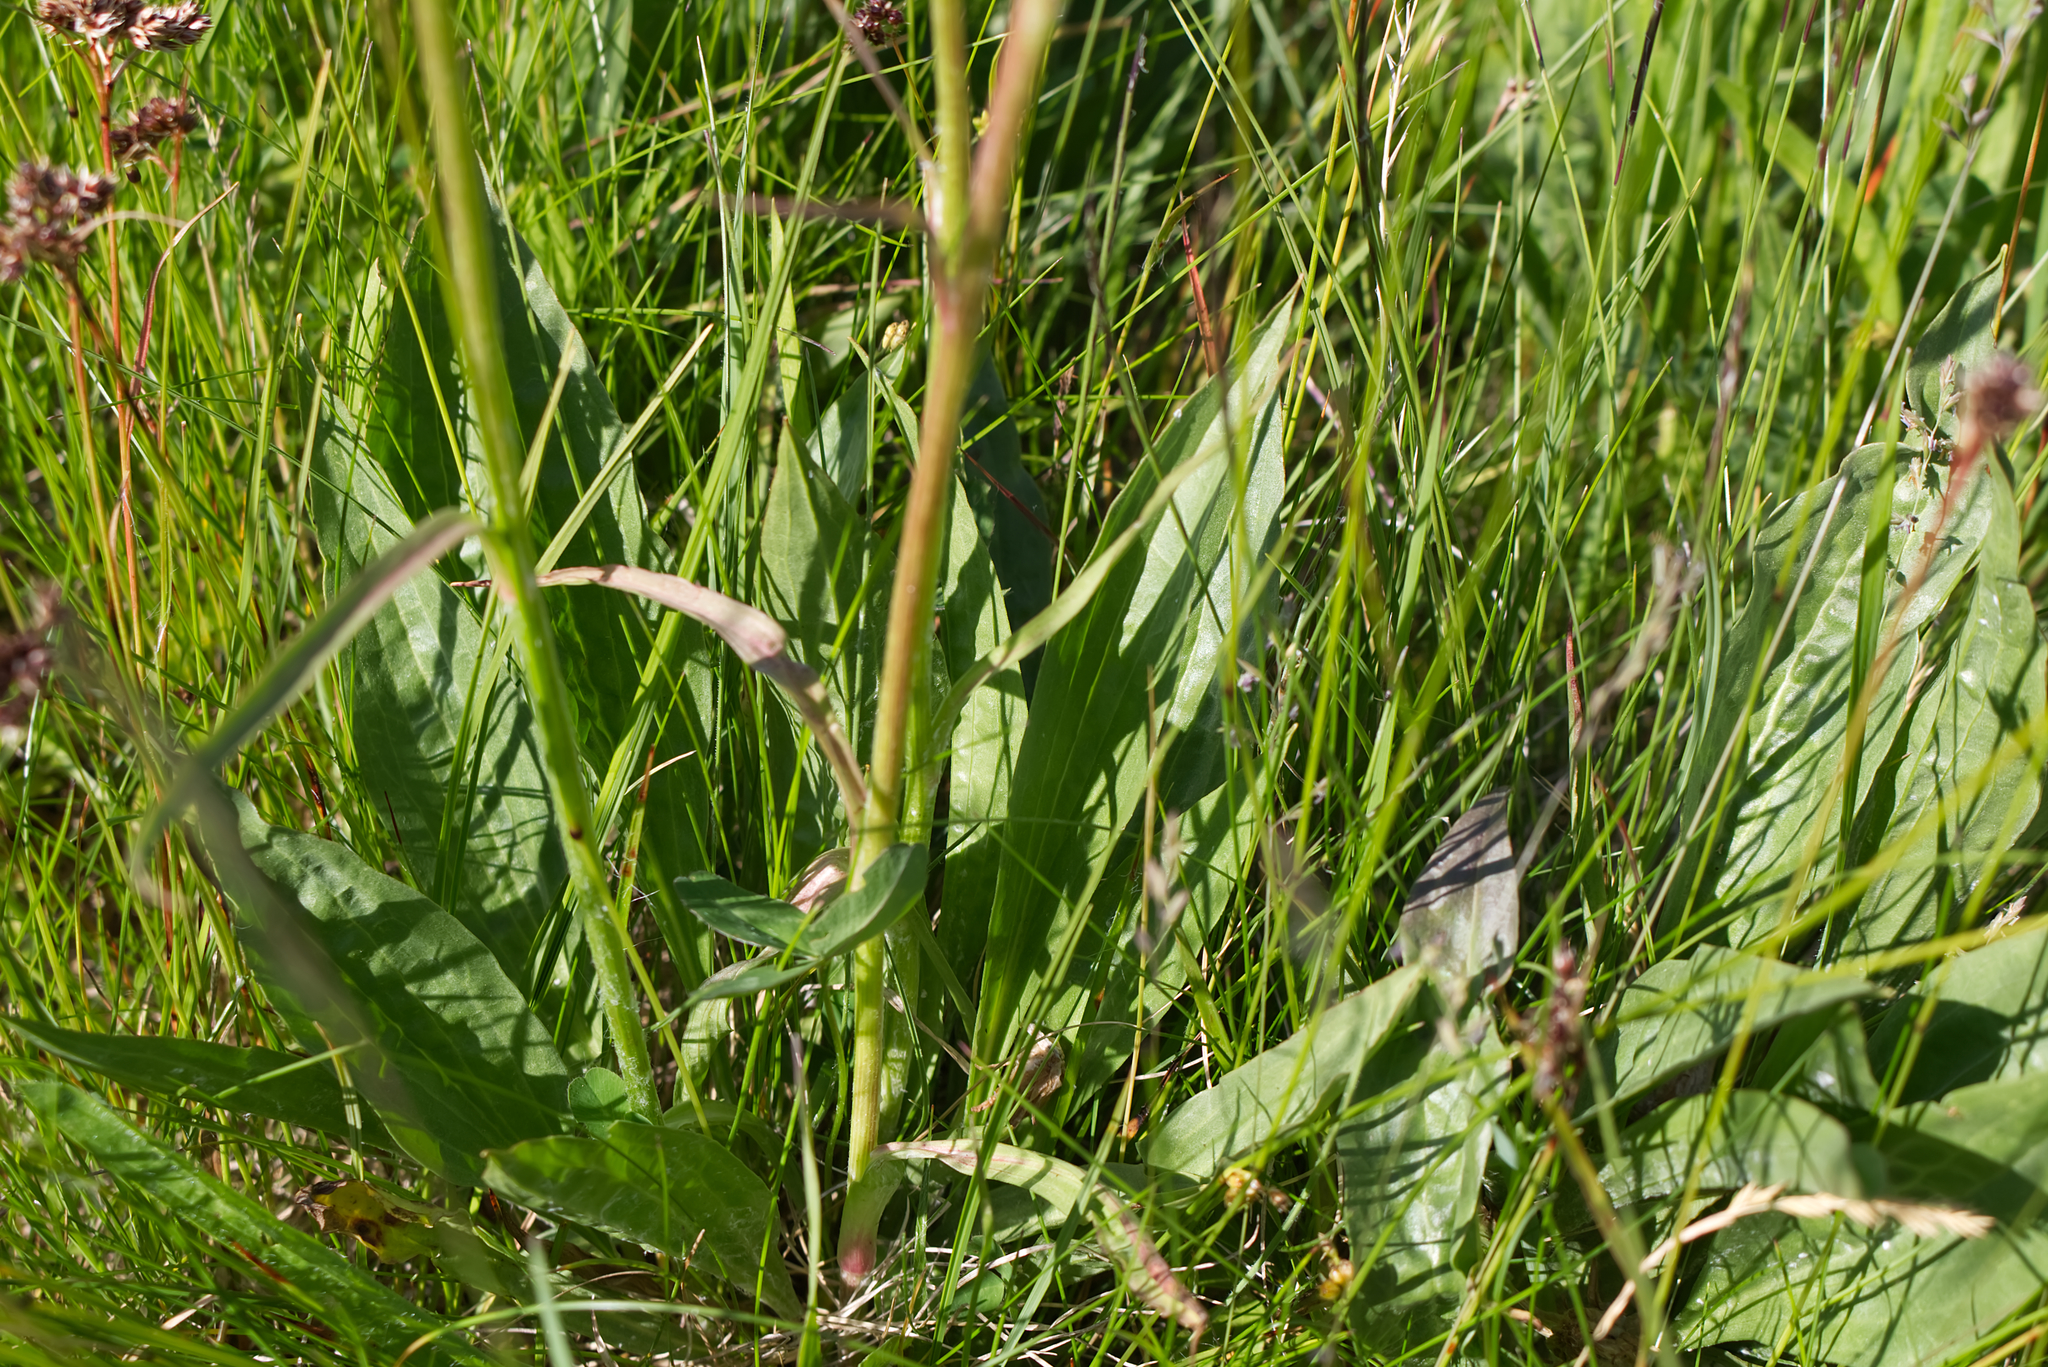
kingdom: Plantae
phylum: Tracheophyta
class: Magnoliopsida
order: Asterales
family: Asteraceae
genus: Scorzonera
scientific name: Scorzonera humilis
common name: Viper's-grass
